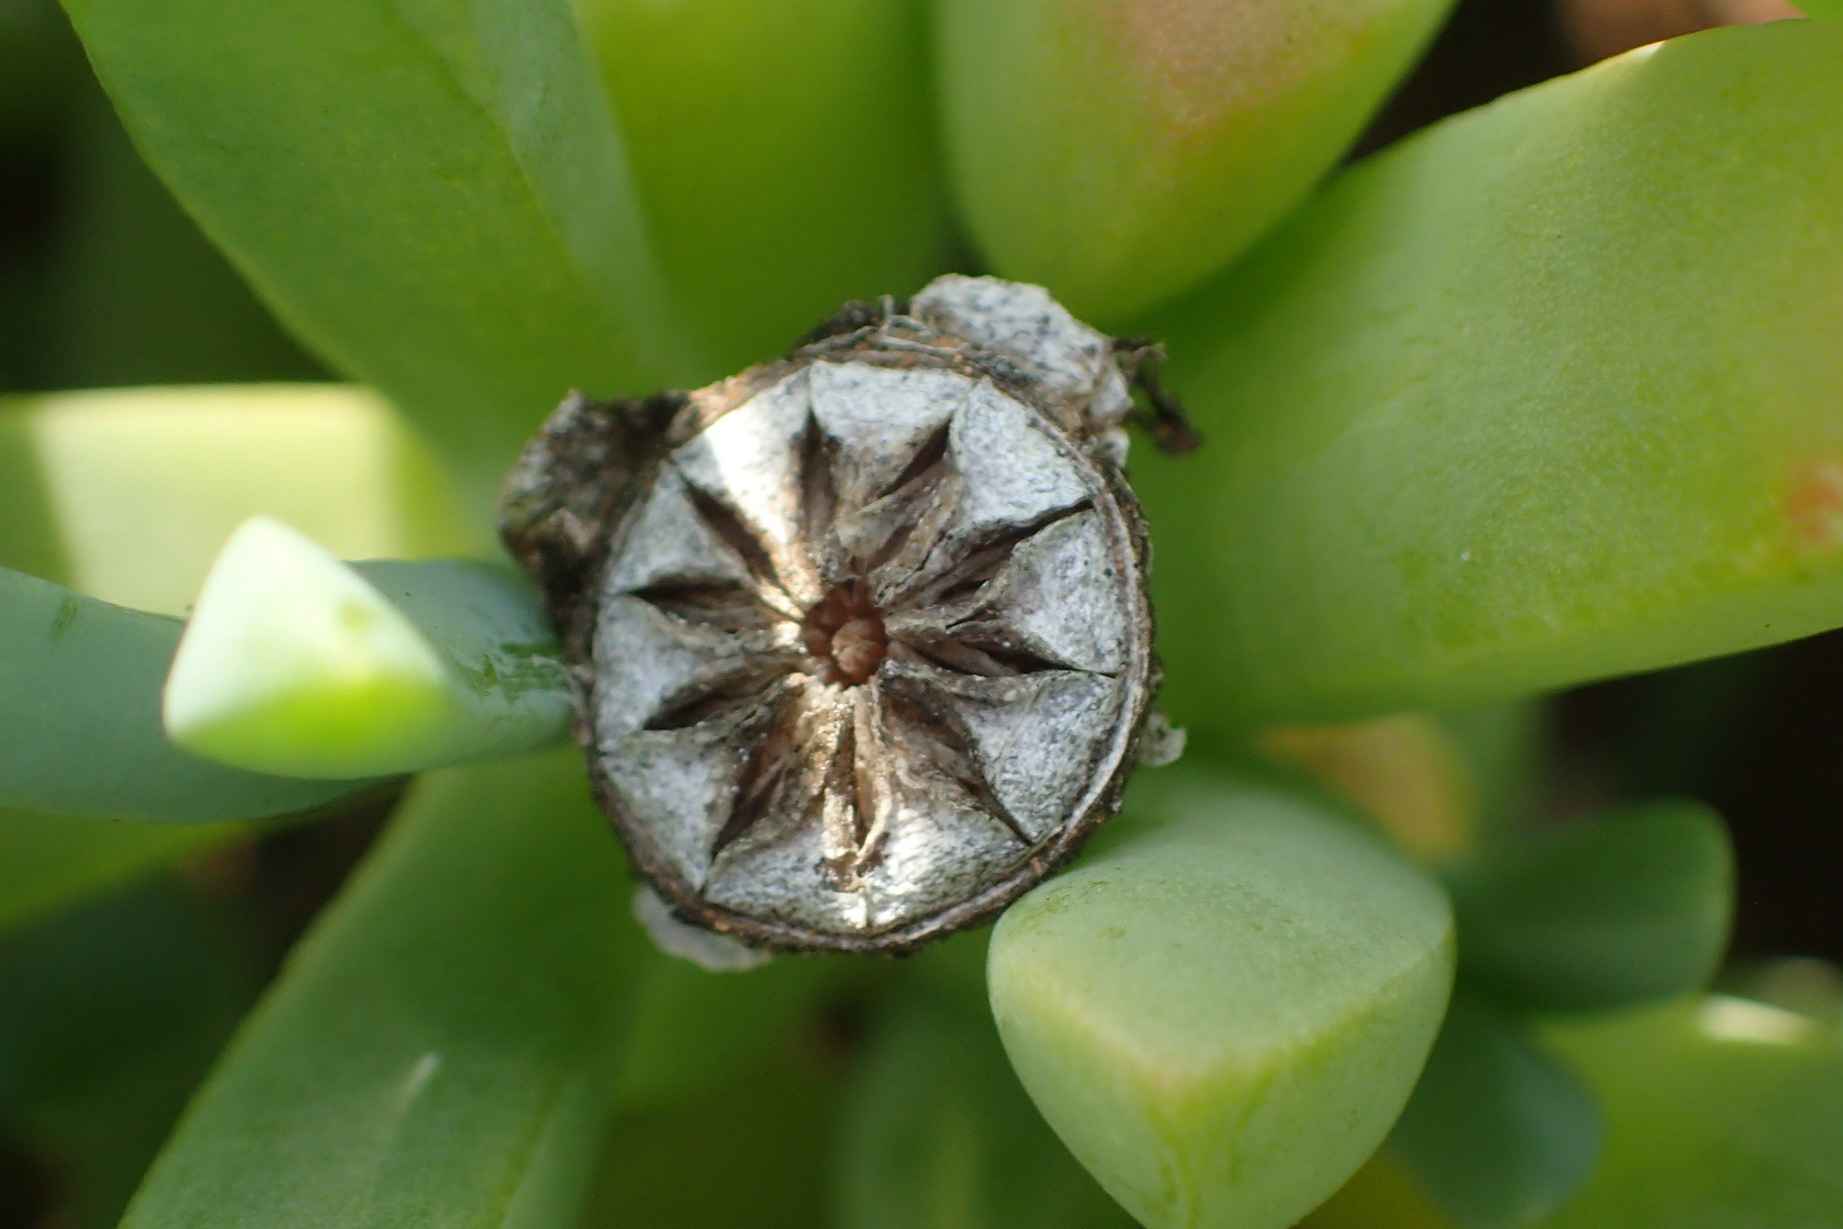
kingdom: Plantae
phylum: Tracheophyta
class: Magnoliopsida
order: Caryophyllales
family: Aizoaceae
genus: Malephora
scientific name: Malephora lutea
